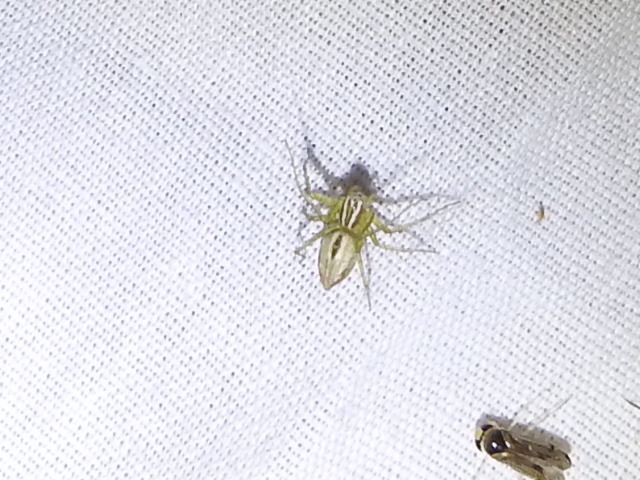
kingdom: Animalia
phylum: Arthropoda
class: Arachnida
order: Araneae
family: Oxyopidae
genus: Oxyopes
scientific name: Oxyopes salticus
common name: Lynx spiders
